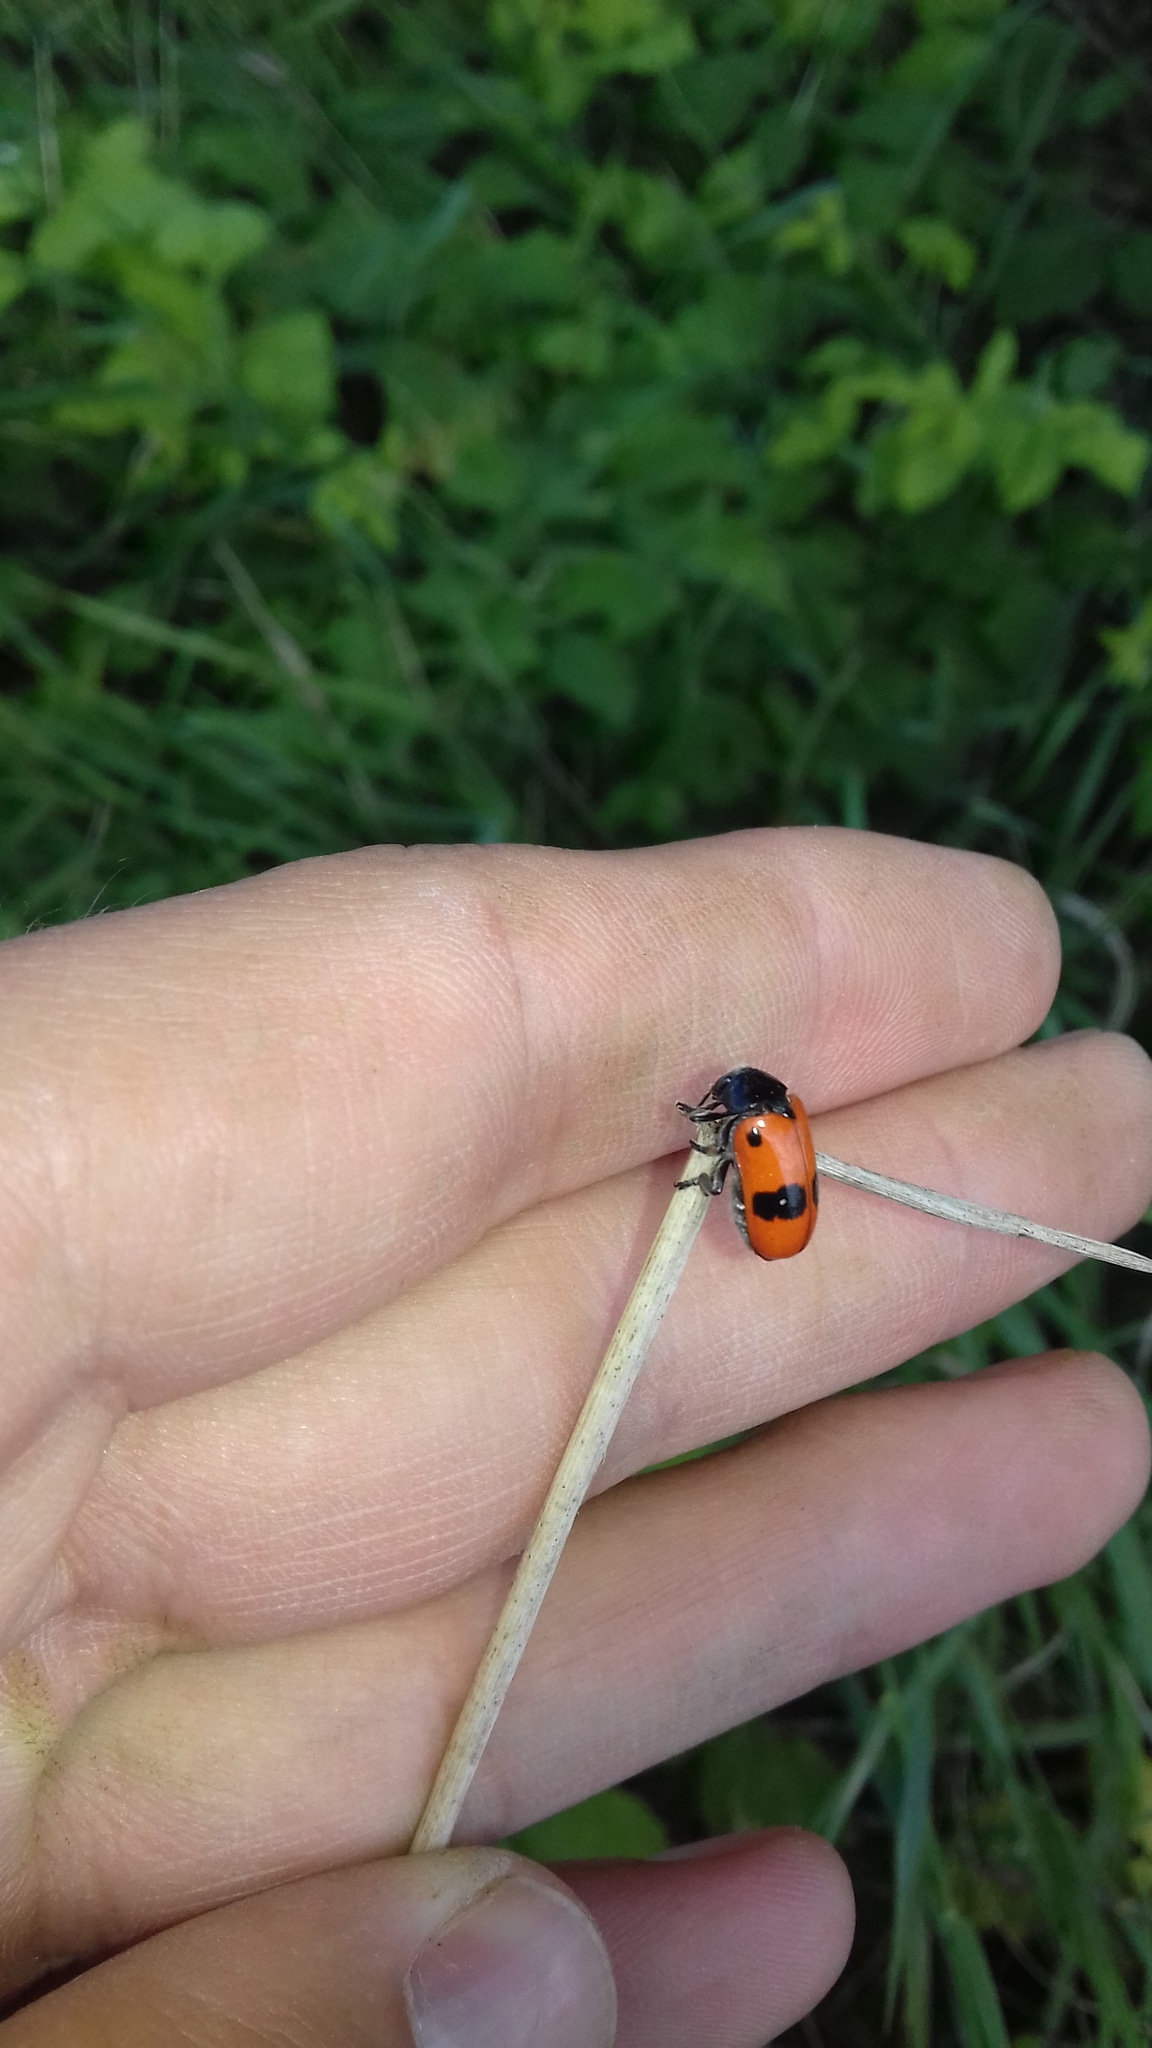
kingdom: Animalia
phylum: Arthropoda
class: Insecta
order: Coleoptera
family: Chrysomelidae
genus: Clytra
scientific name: Clytra laeviuscula
